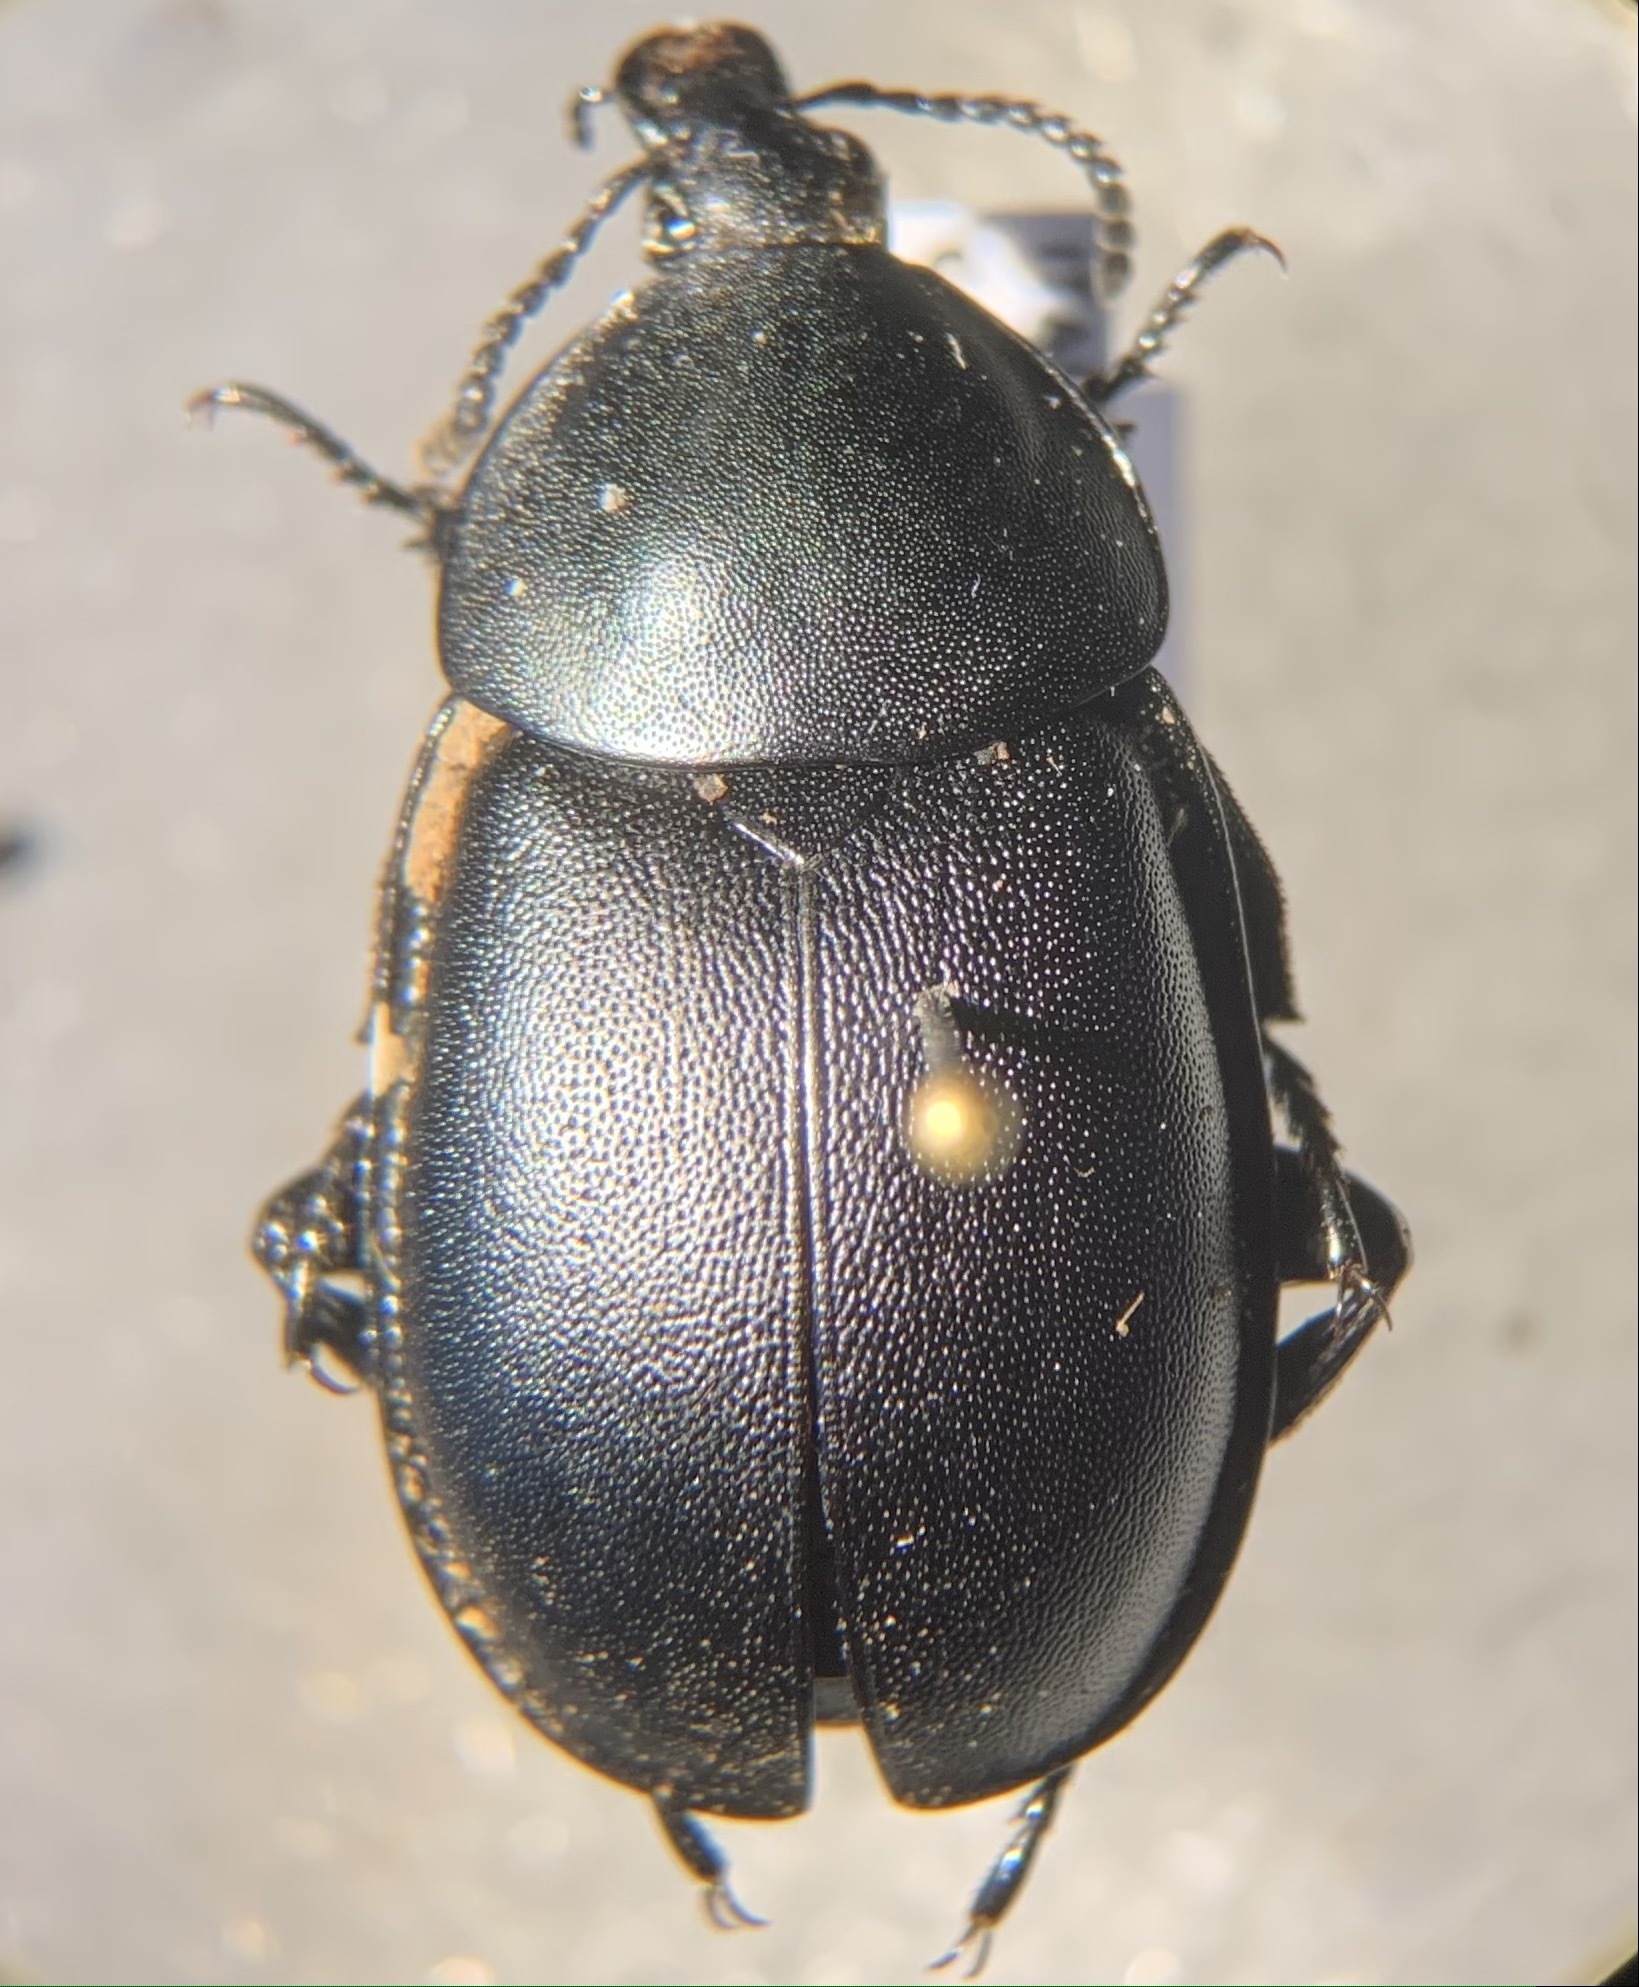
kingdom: Animalia
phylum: Arthropoda
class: Insecta
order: Coleoptera
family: Staphylinidae
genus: Silpha
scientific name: Silpha laevigata
